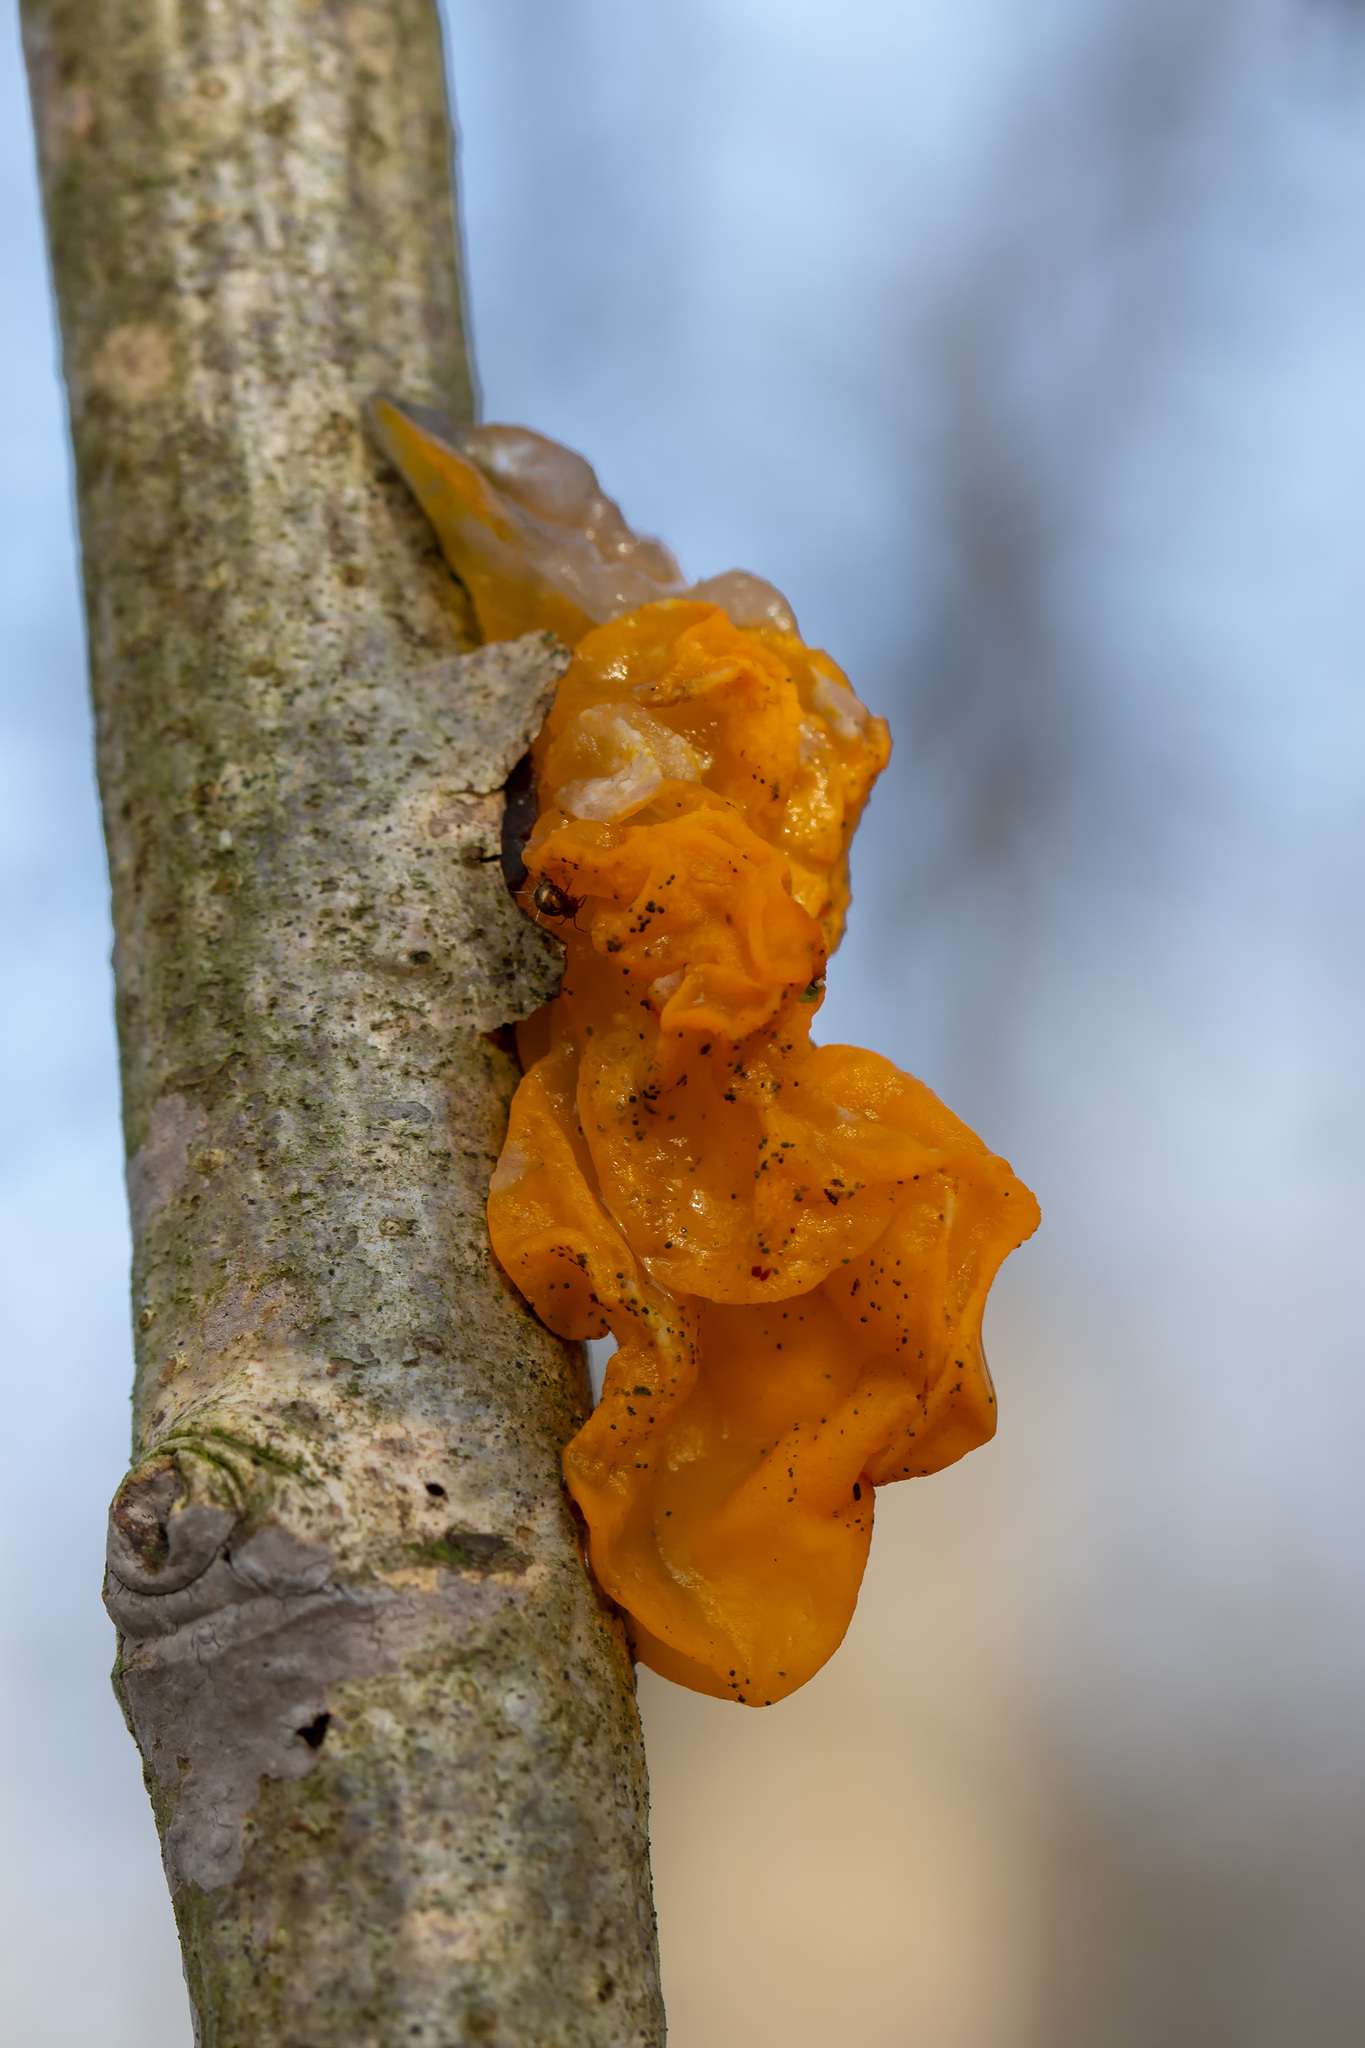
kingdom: Fungi
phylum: Basidiomycota
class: Tremellomycetes
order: Tremellales
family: Tremellaceae
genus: Tremella
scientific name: Tremella mesenterica
